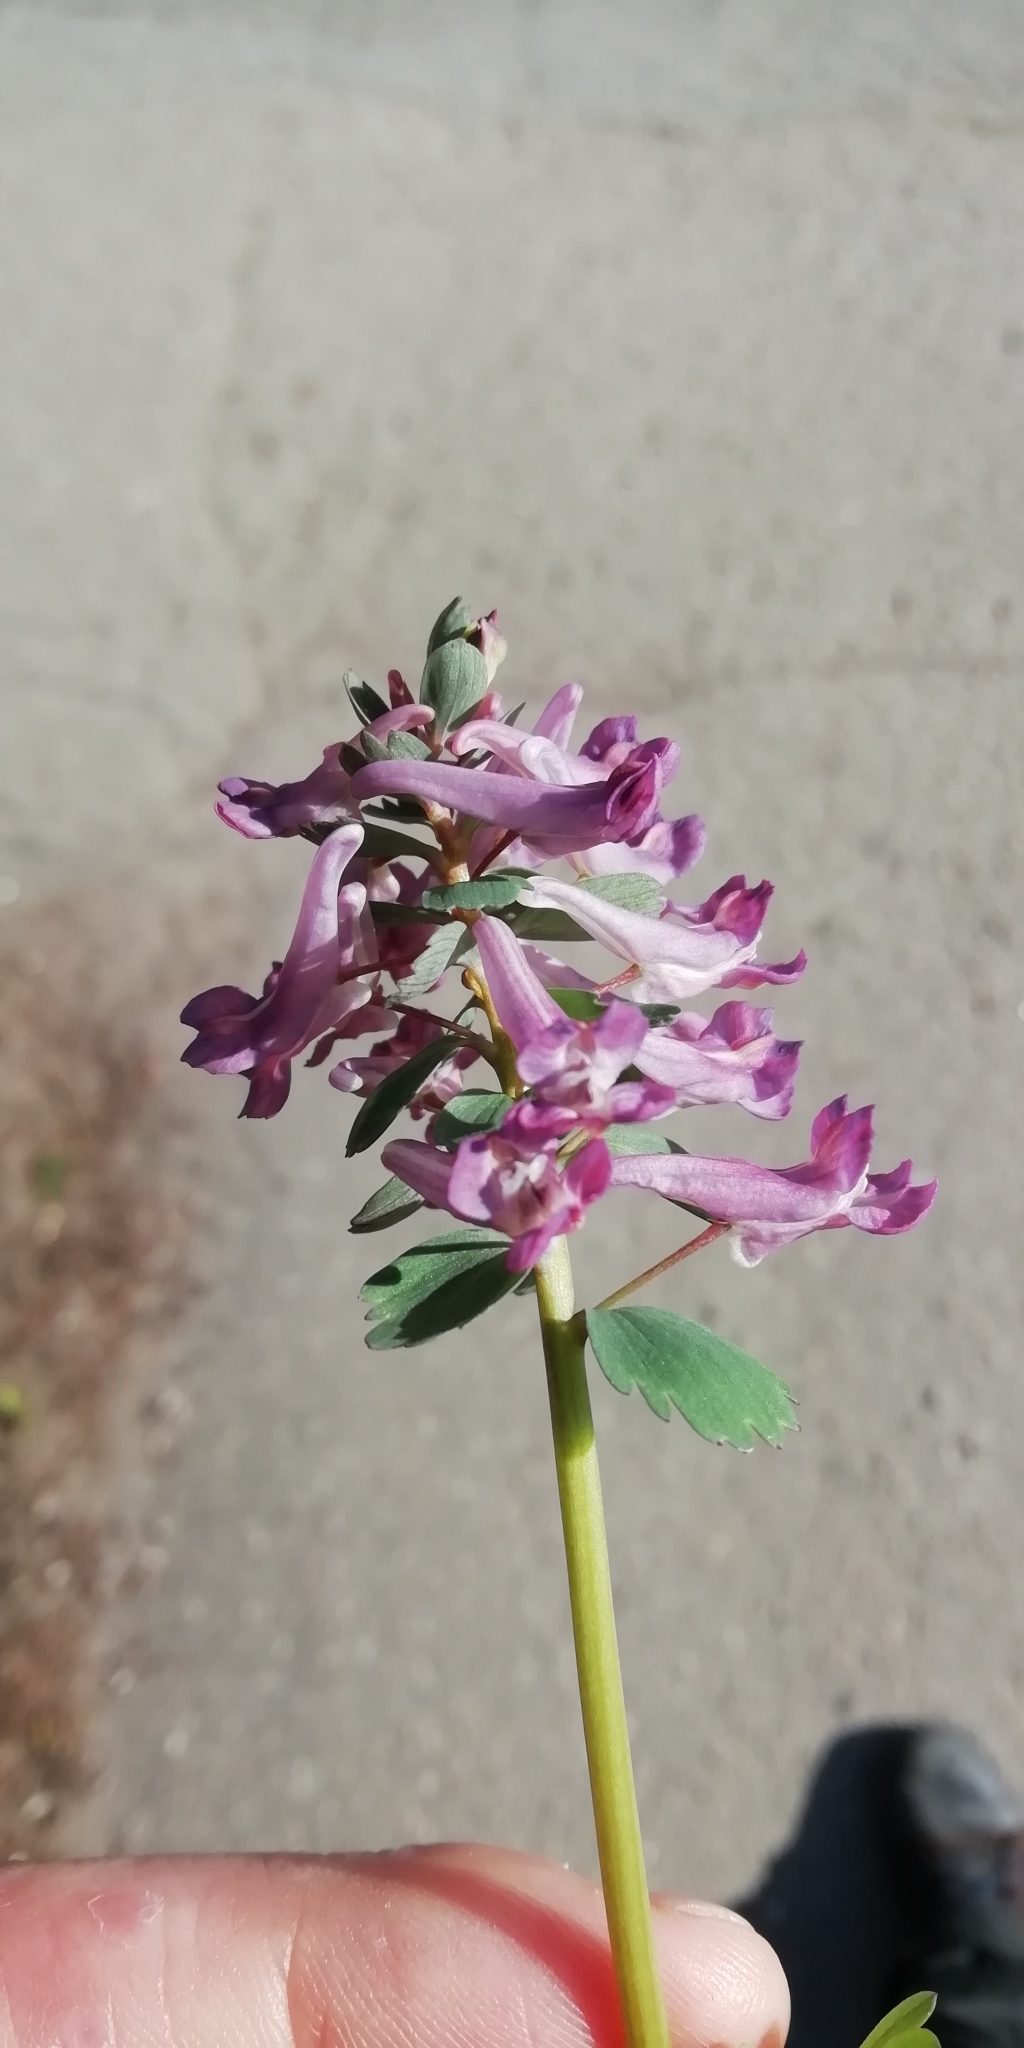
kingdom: Plantae
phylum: Tracheophyta
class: Magnoliopsida
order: Ranunculales
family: Papaveraceae
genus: Corydalis
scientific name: Corydalis solida
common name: Bird-in-a-bush
